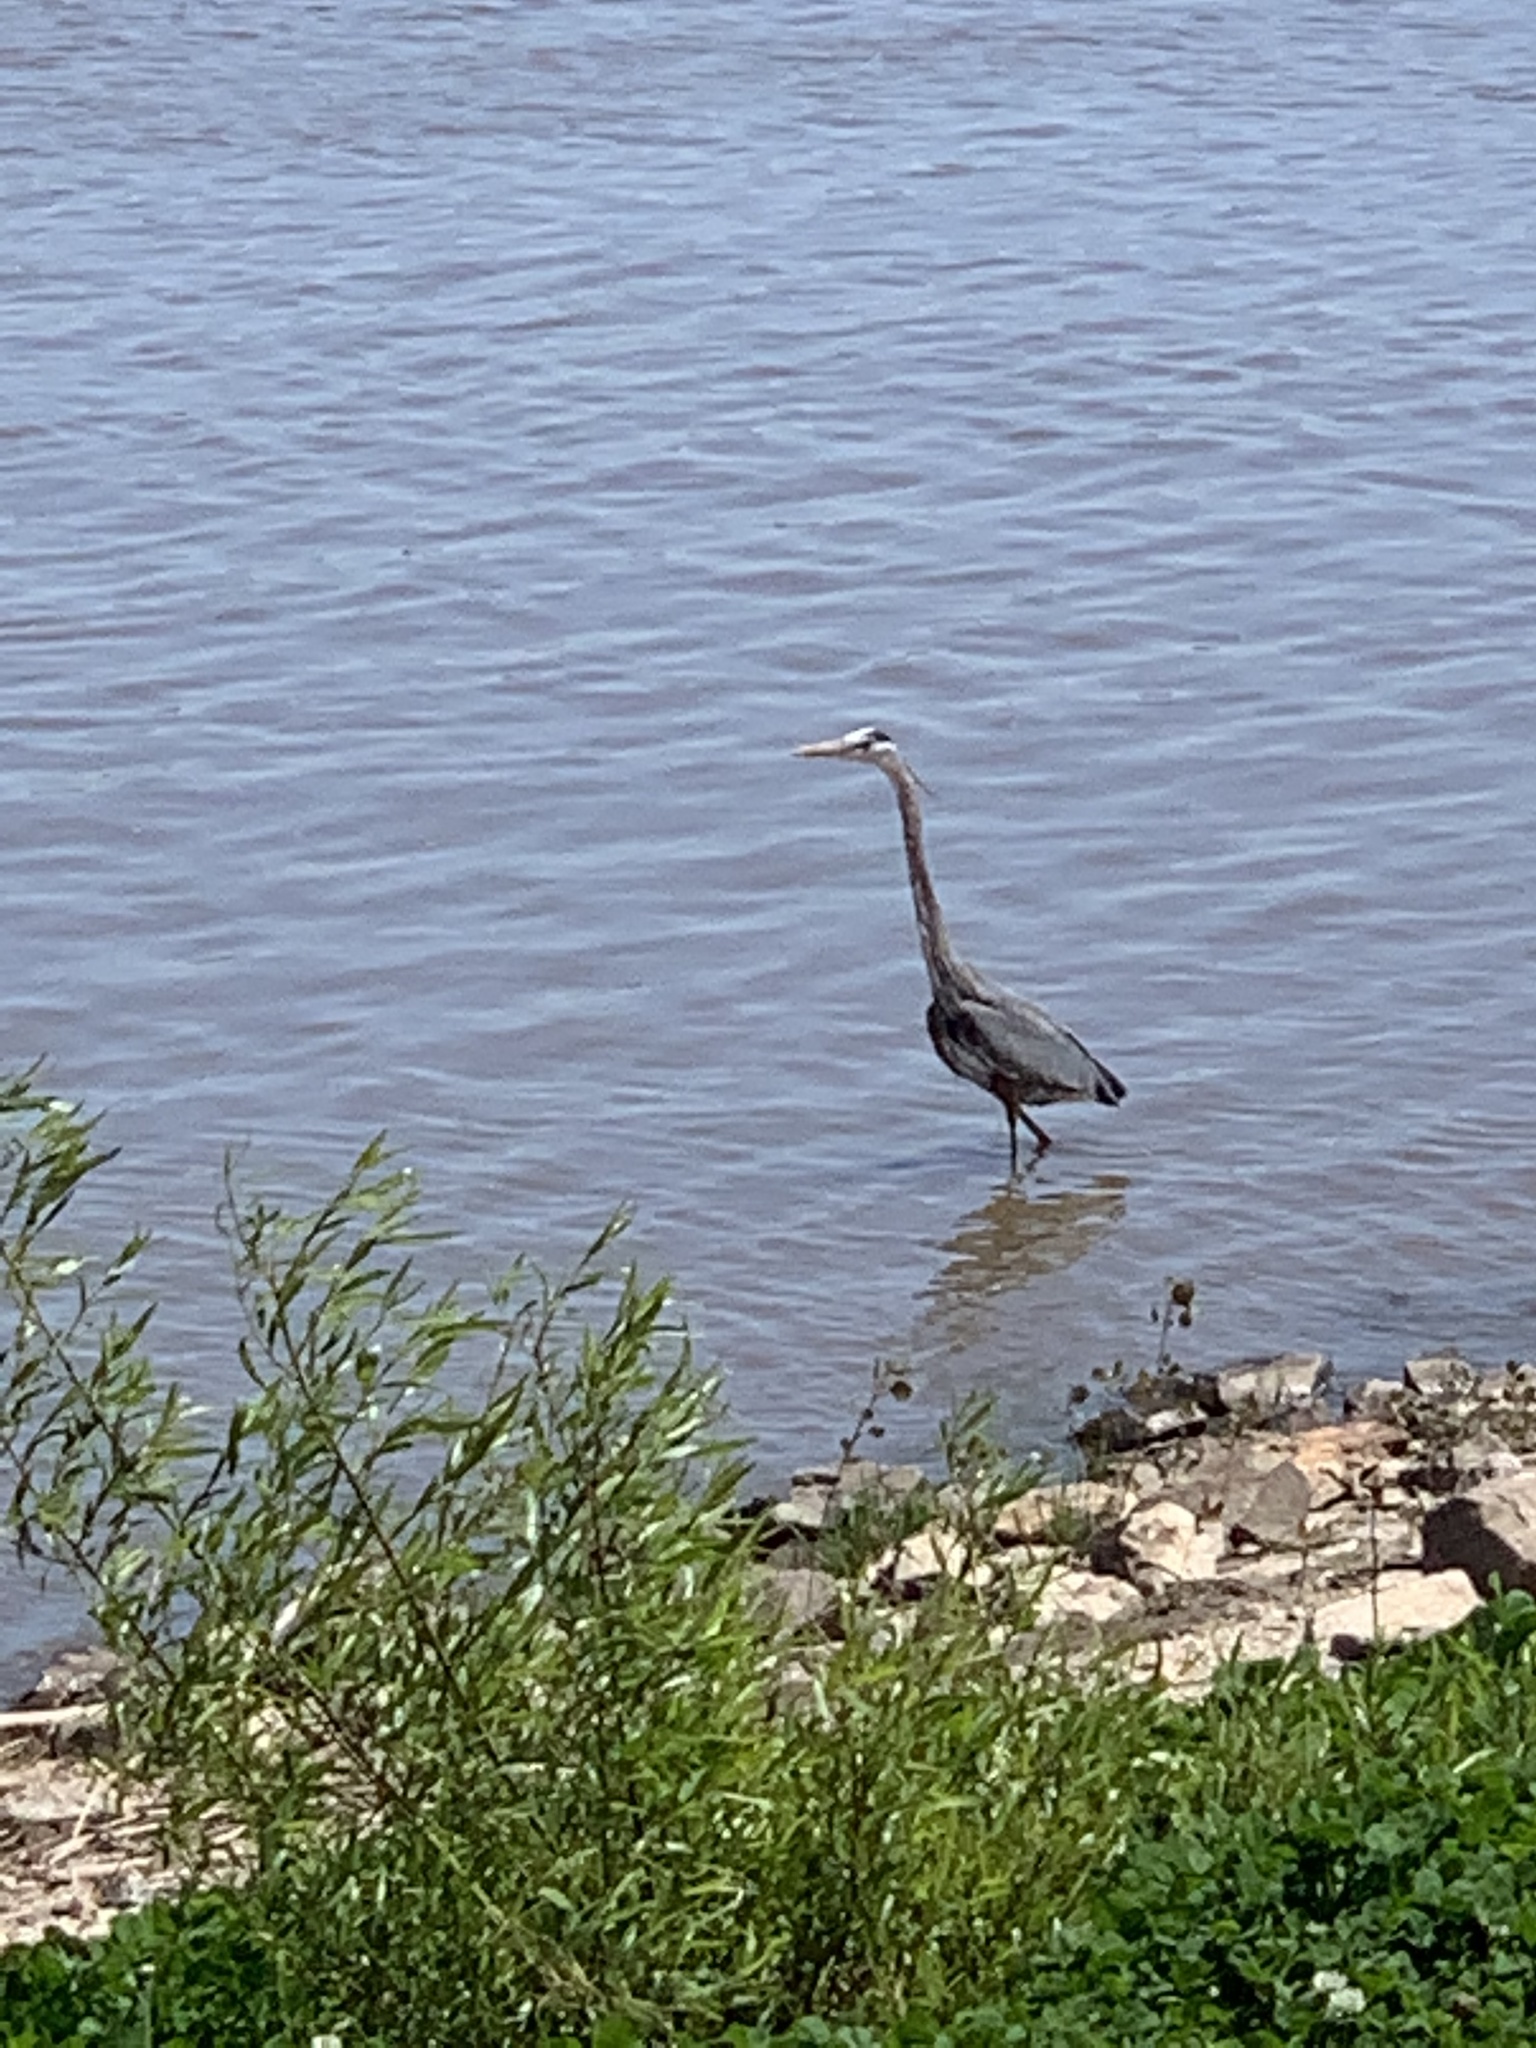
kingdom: Animalia
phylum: Chordata
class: Aves
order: Pelecaniformes
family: Ardeidae
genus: Ardea
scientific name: Ardea herodias
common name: Great blue heron
